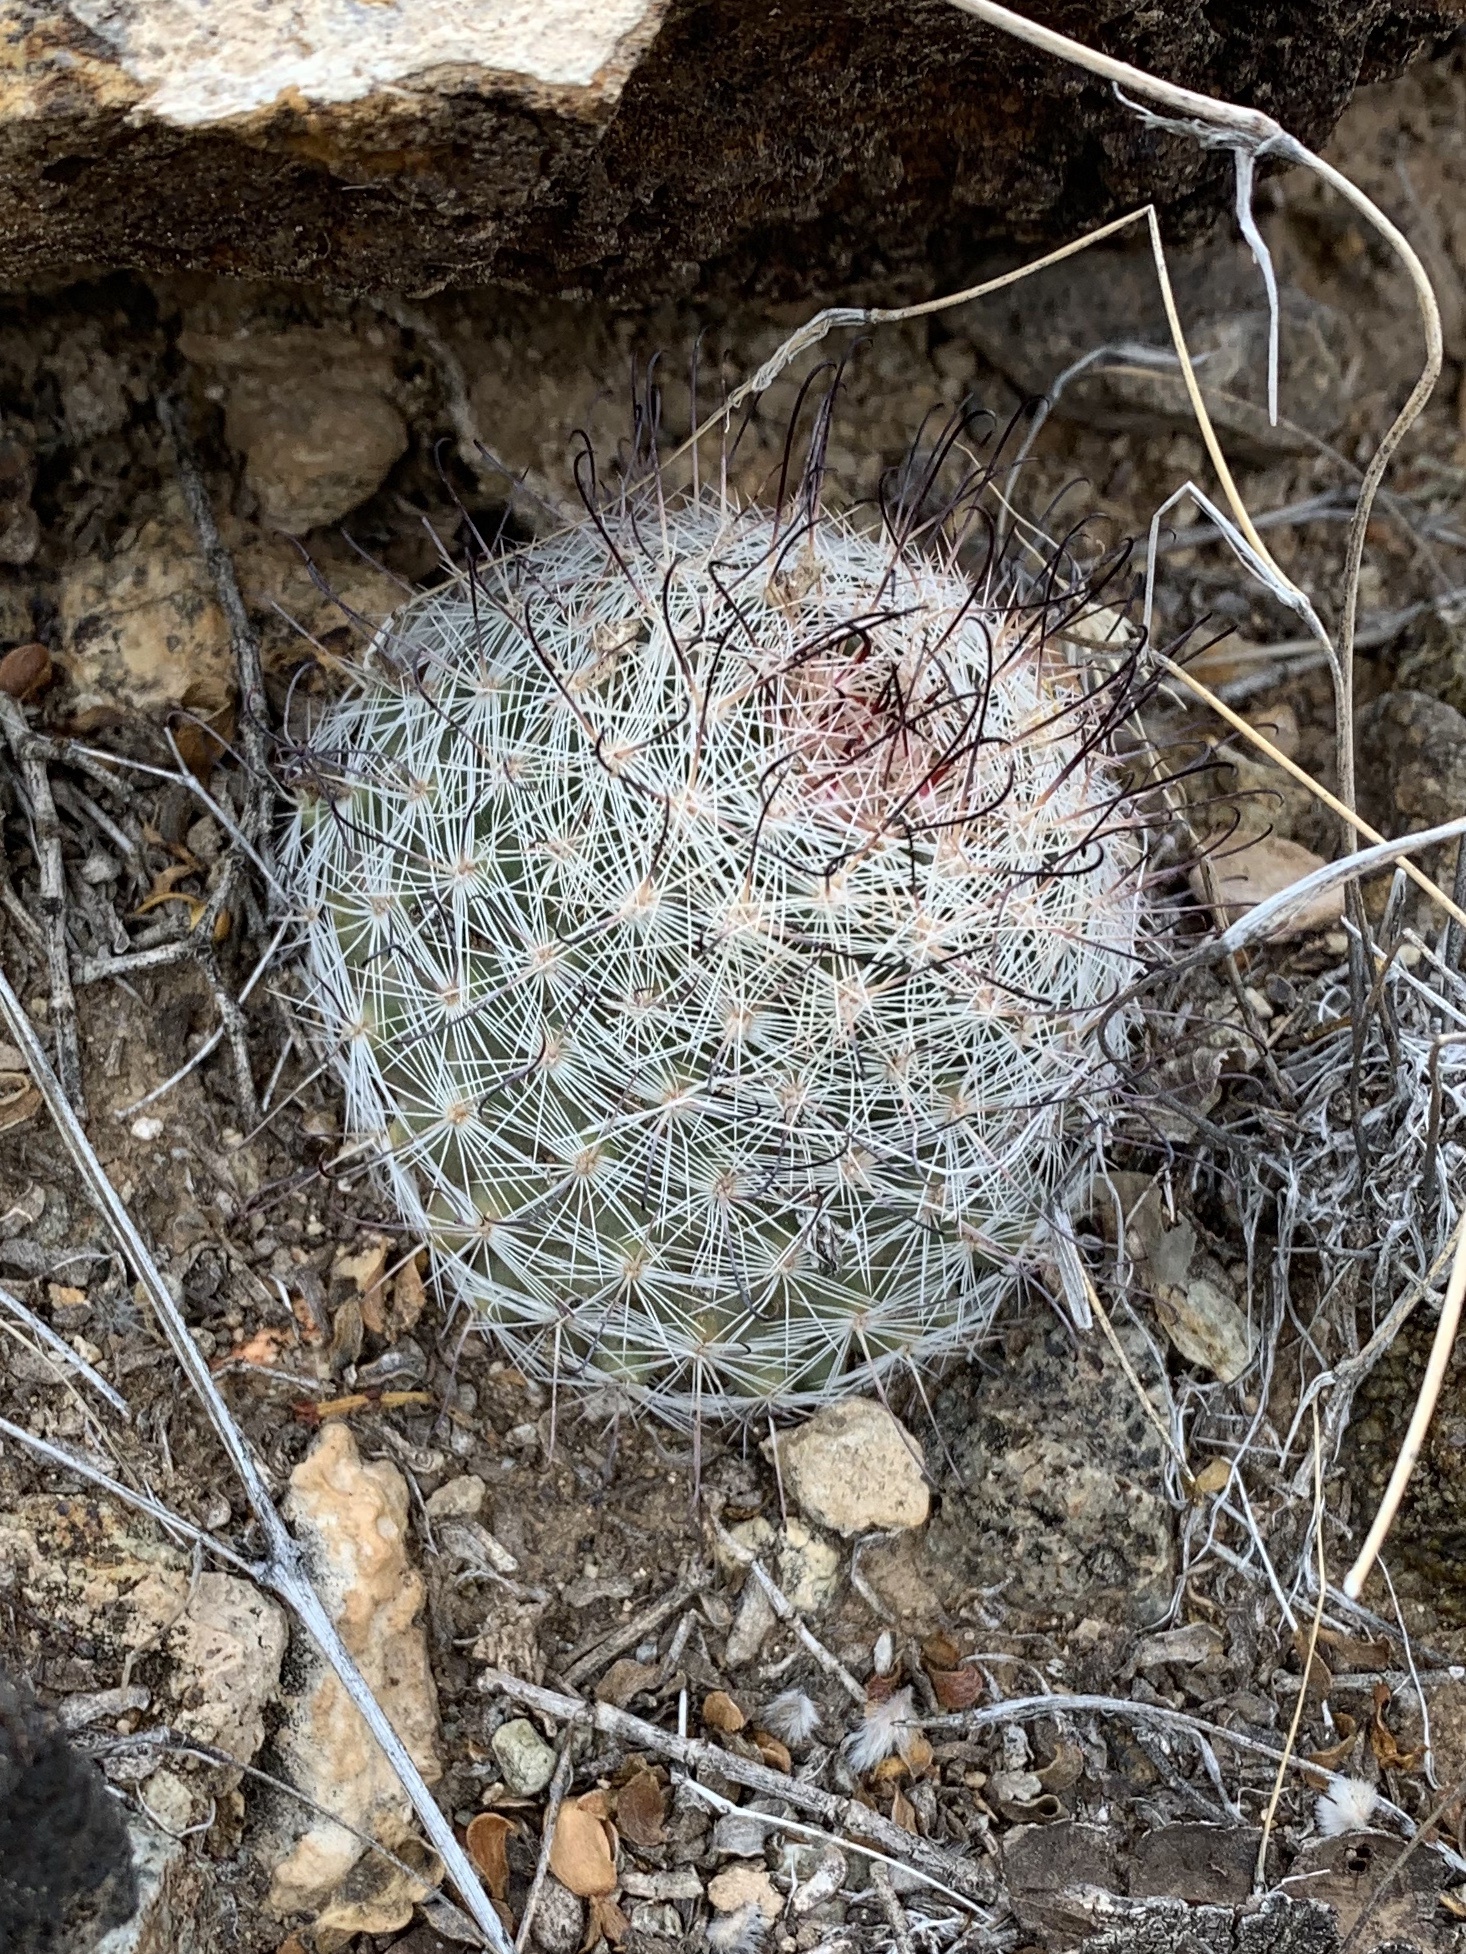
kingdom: Plantae
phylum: Tracheophyta
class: Magnoliopsida
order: Caryophyllales
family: Cactaceae
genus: Cochemiea
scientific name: Cochemiea grahamii
